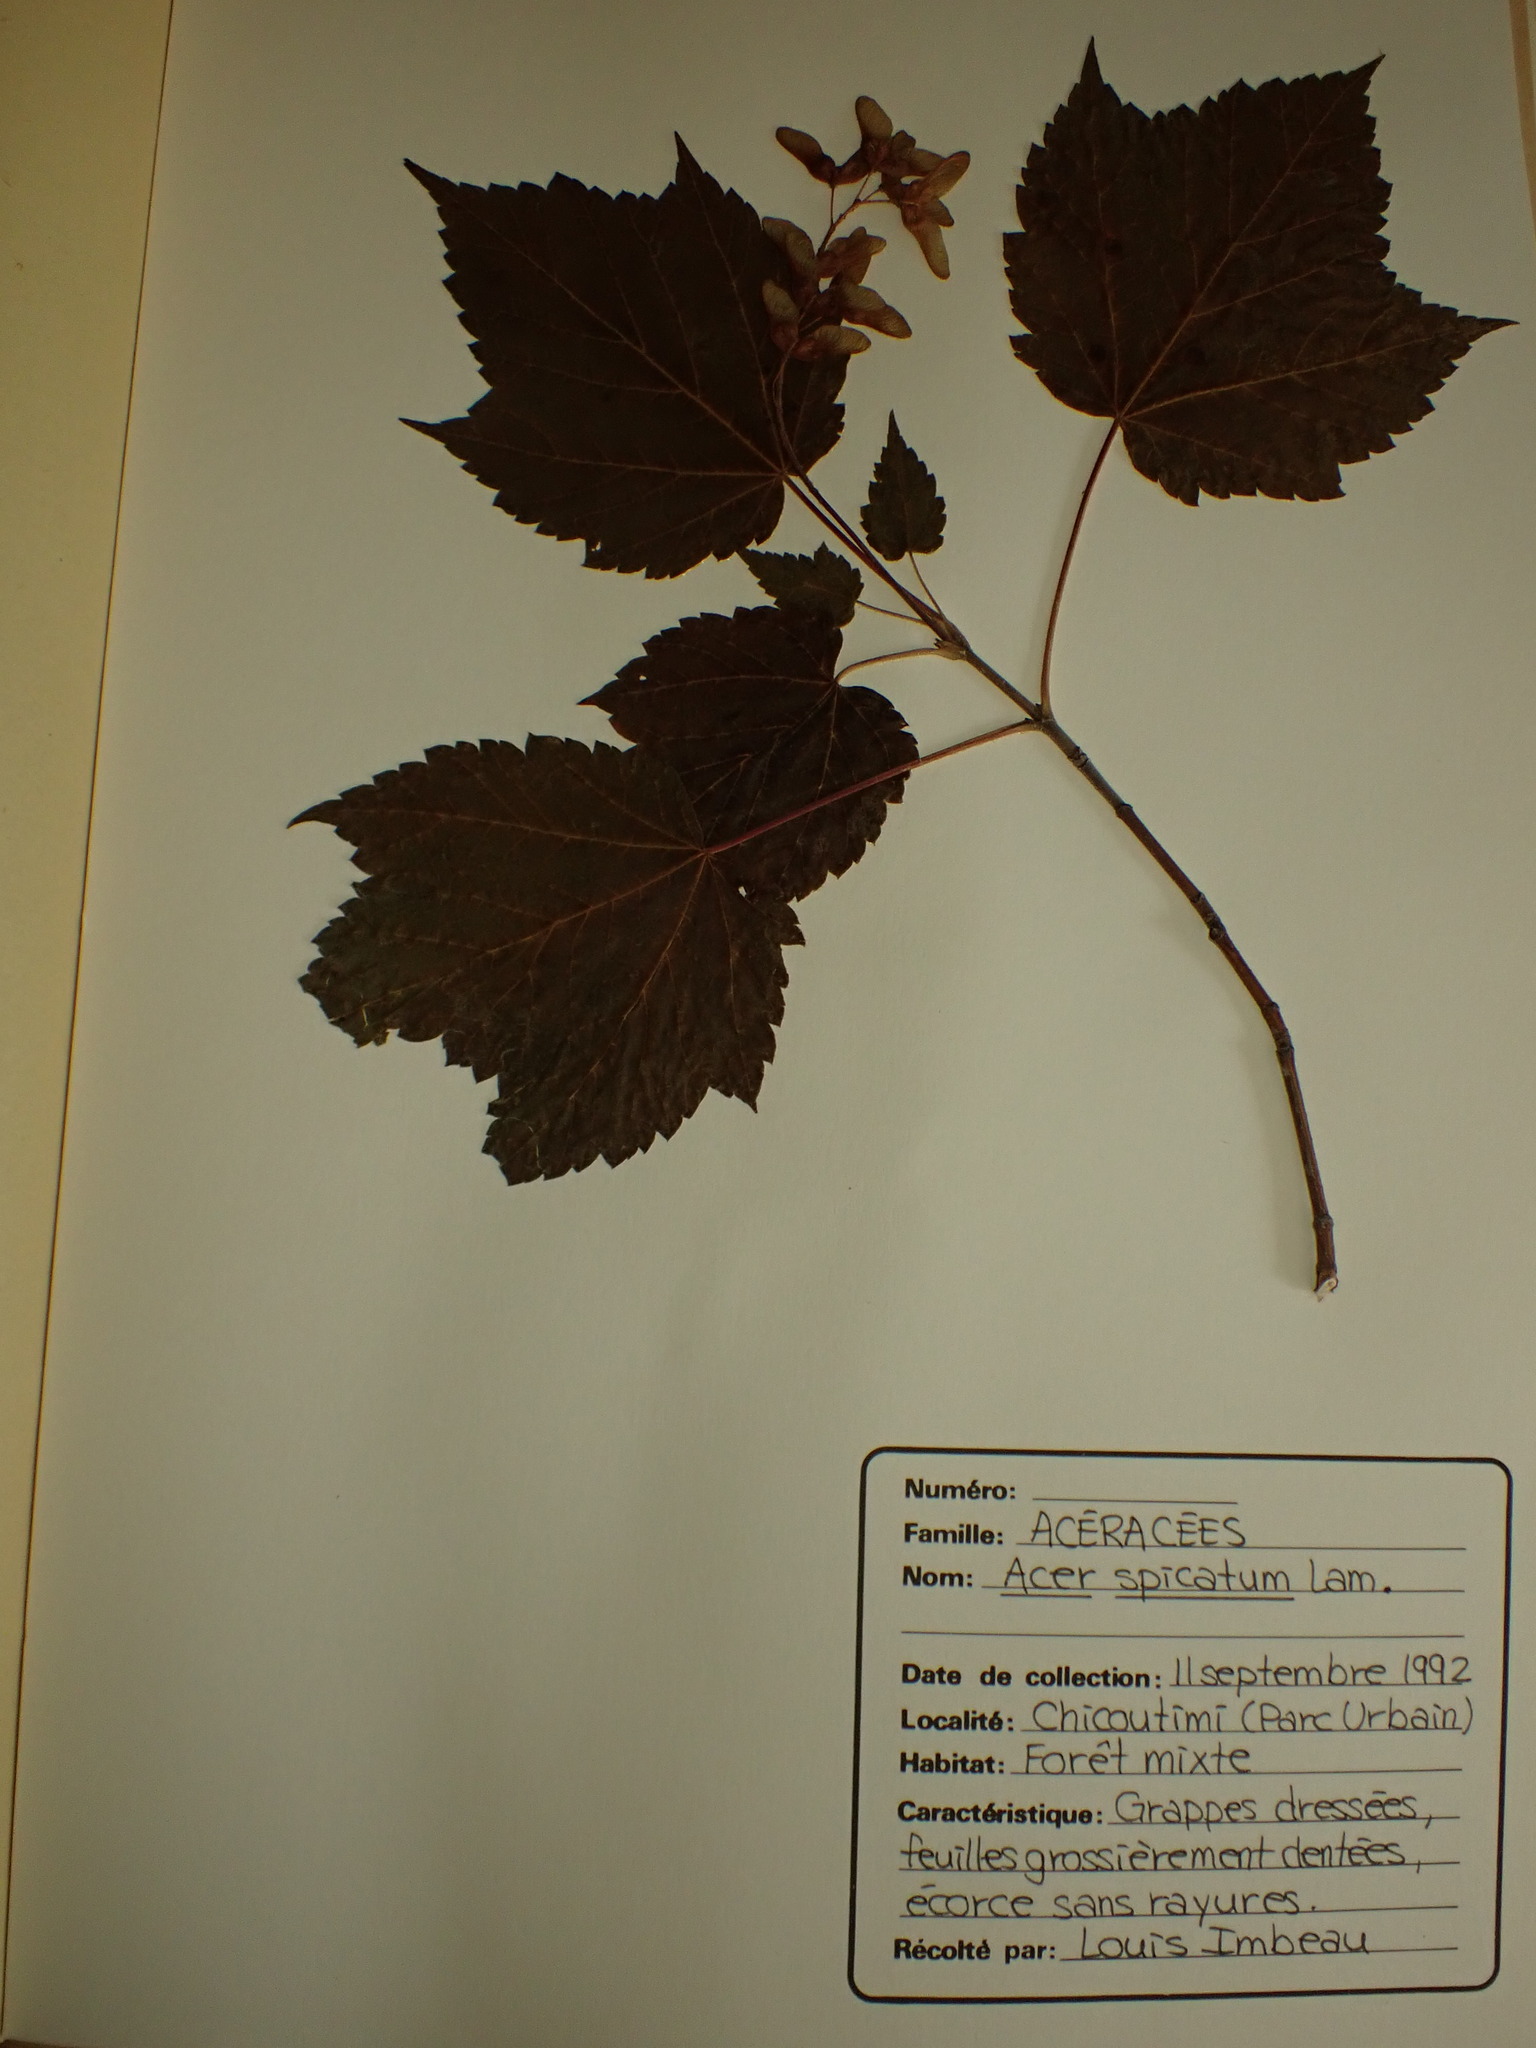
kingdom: Plantae
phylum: Tracheophyta
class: Magnoliopsida
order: Sapindales
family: Sapindaceae
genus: Acer
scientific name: Acer spicatum
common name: Mountain maple
